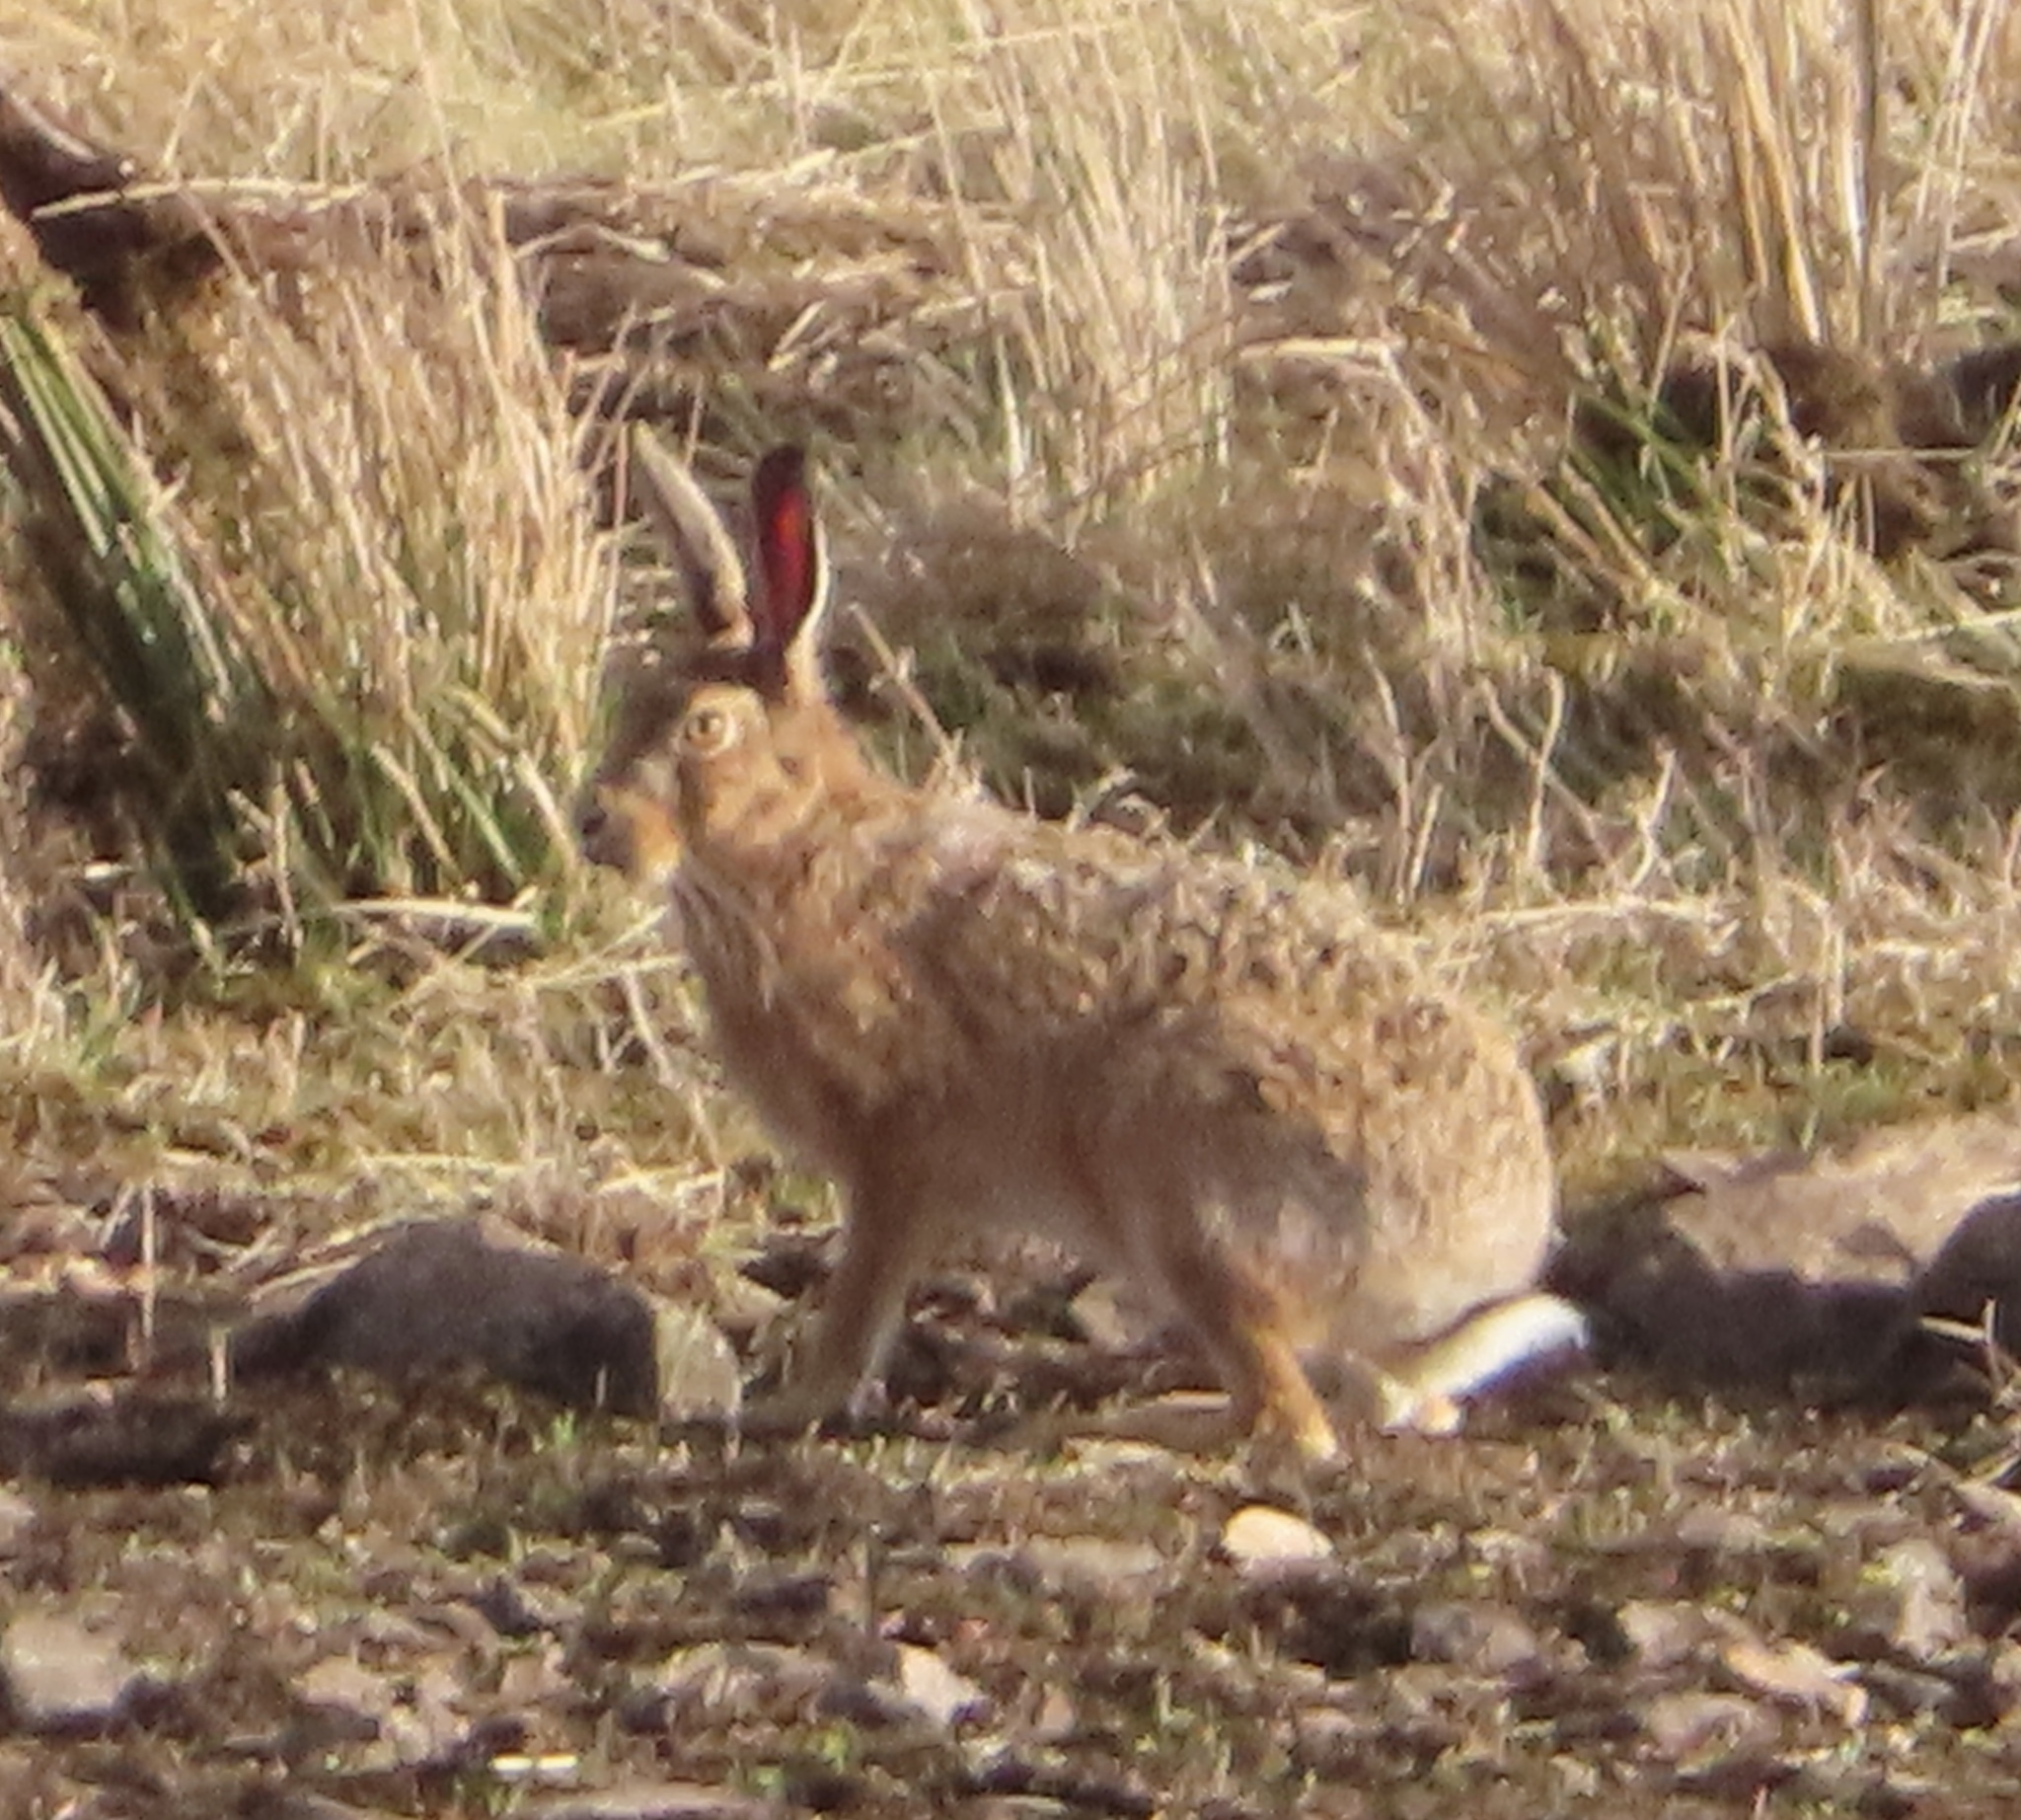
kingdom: Animalia
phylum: Chordata
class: Mammalia
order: Lagomorpha
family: Leporidae
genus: Lepus
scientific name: Lepus europaeus
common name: European hare
